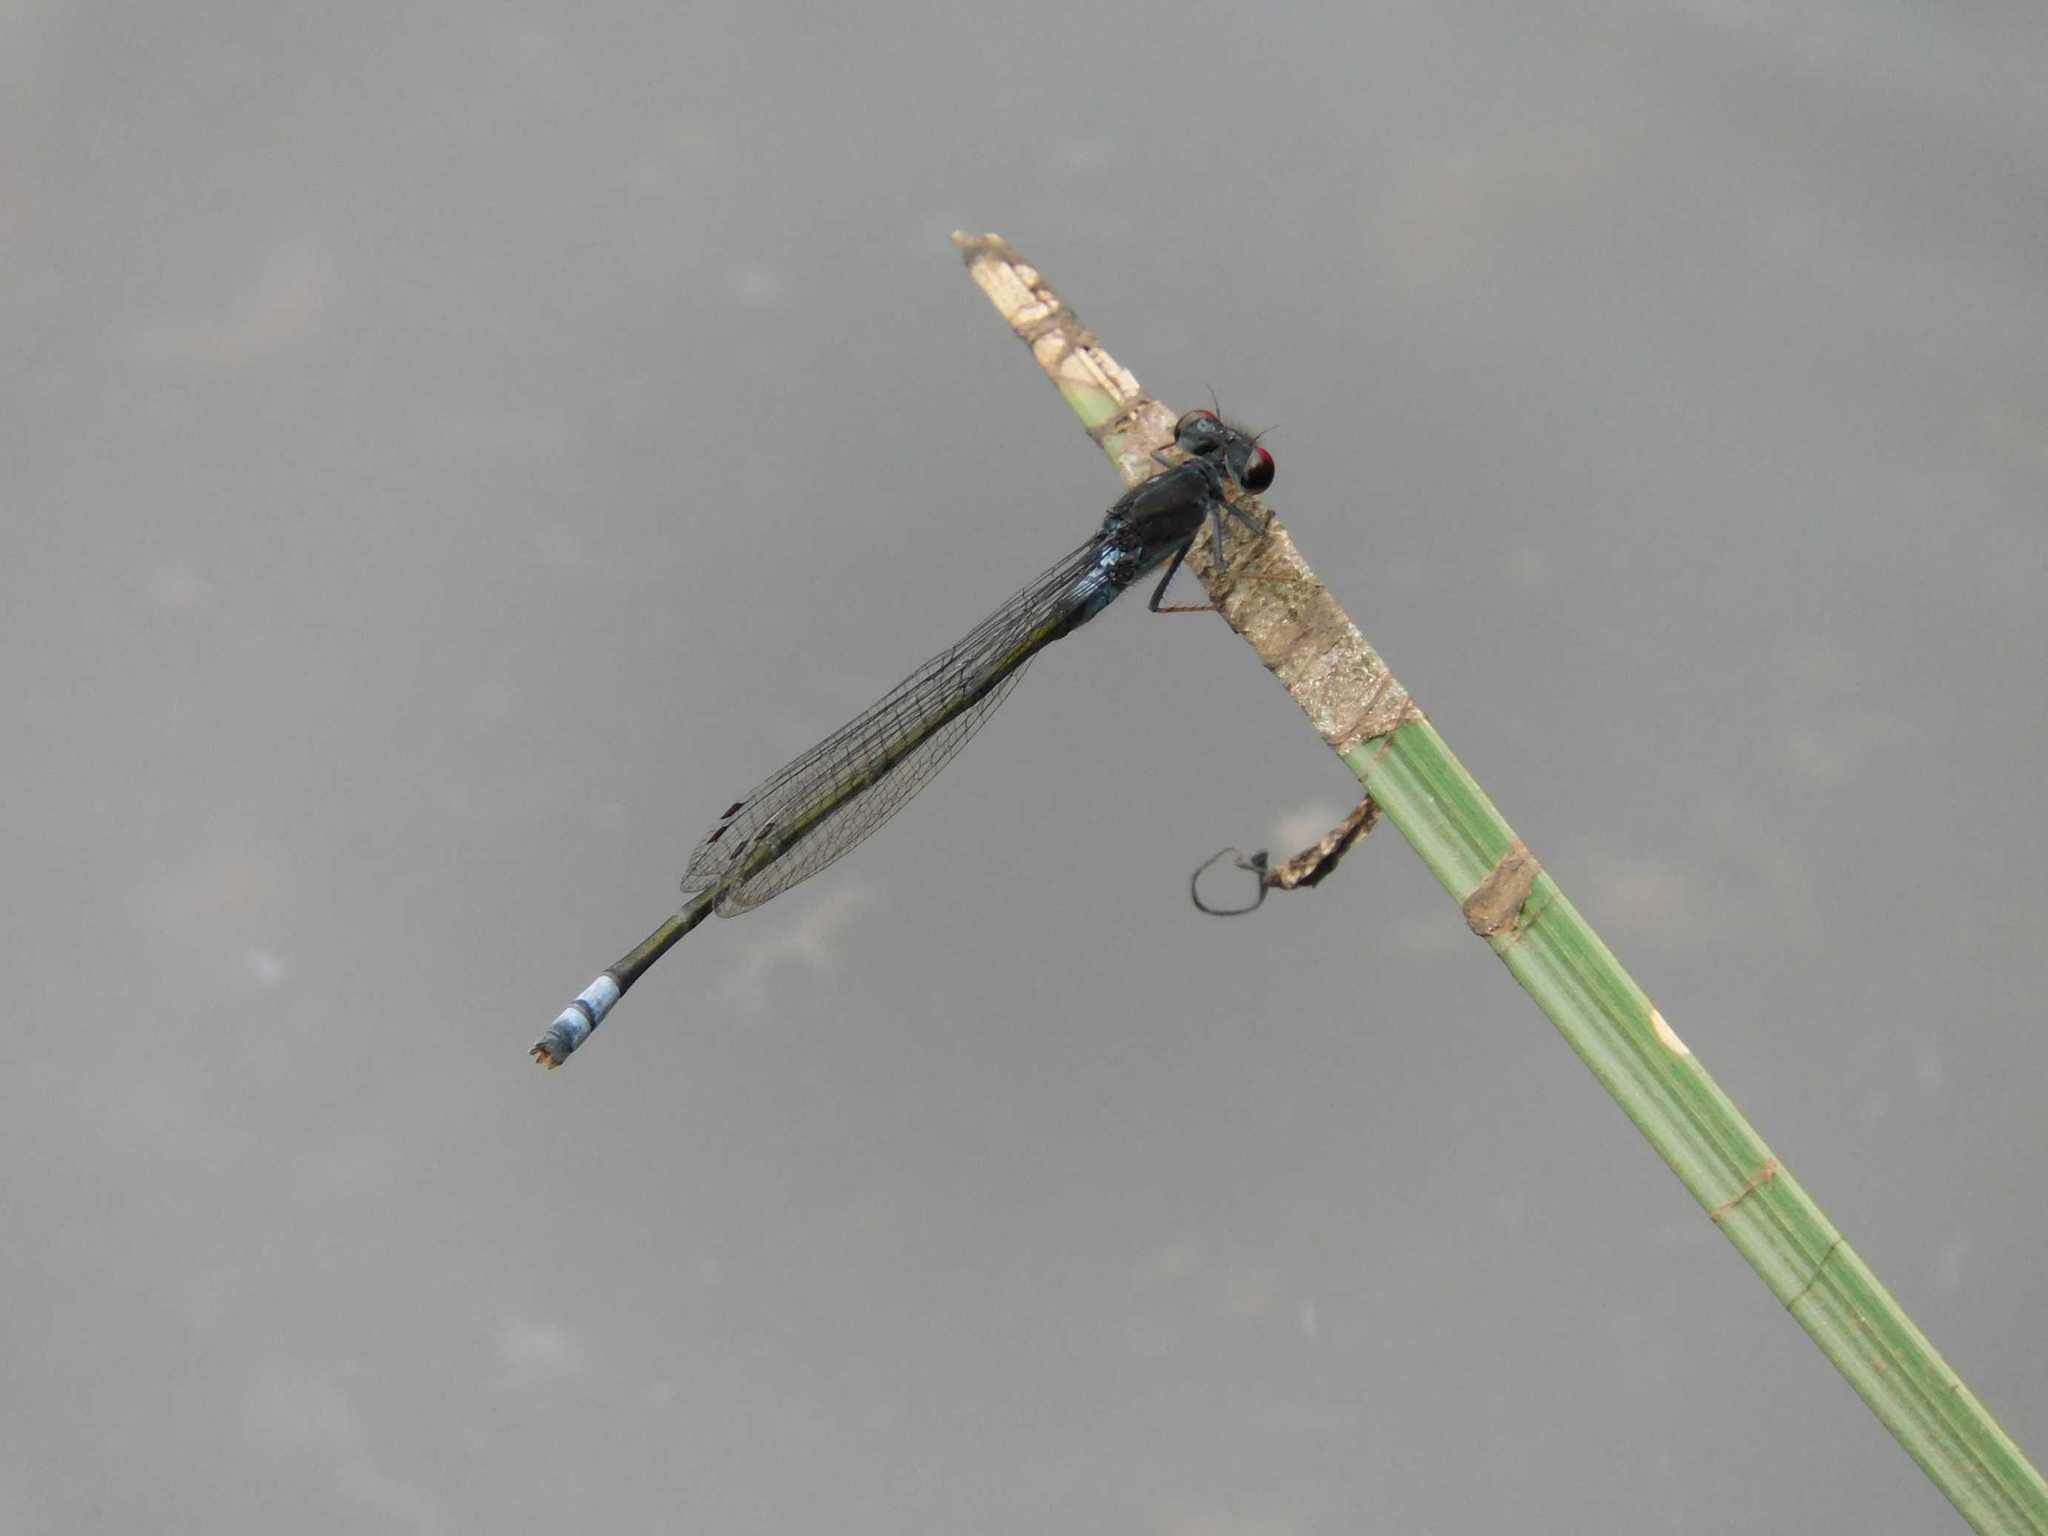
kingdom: Animalia
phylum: Arthropoda
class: Insecta
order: Odonata
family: Coenagrionidae
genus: Pseudagrion
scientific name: Pseudagrion hamoni
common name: Swarthy sprite
